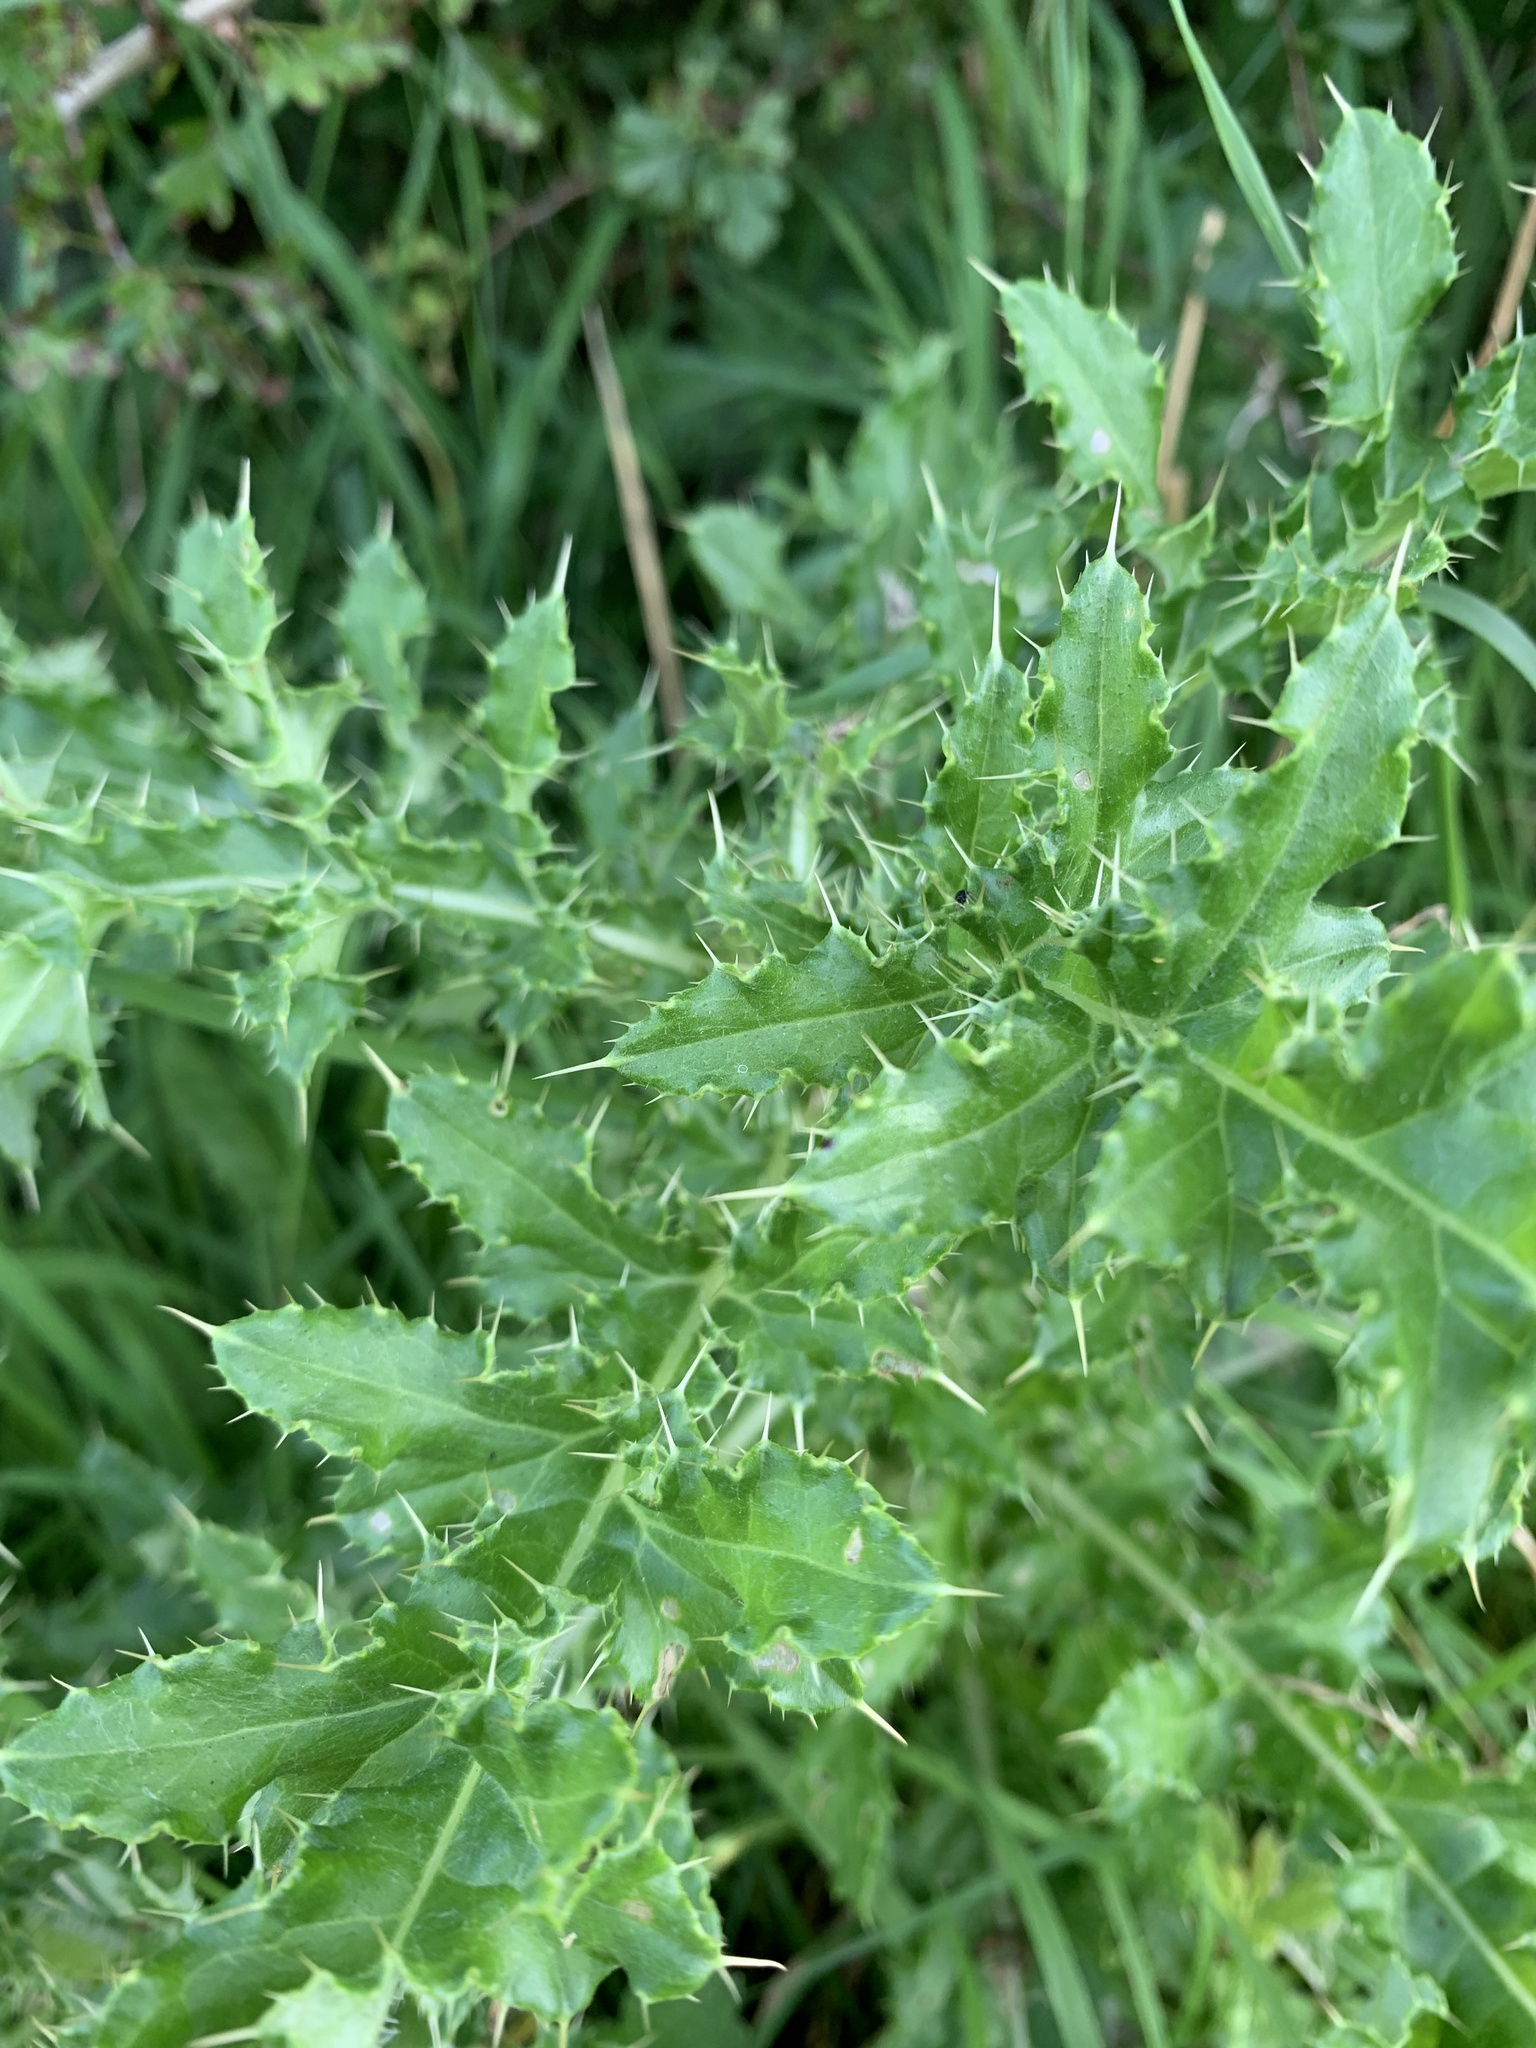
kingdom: Plantae
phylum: Tracheophyta
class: Magnoliopsida
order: Asterales
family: Asteraceae
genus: Cirsium
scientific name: Cirsium arvense
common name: Creeping thistle
